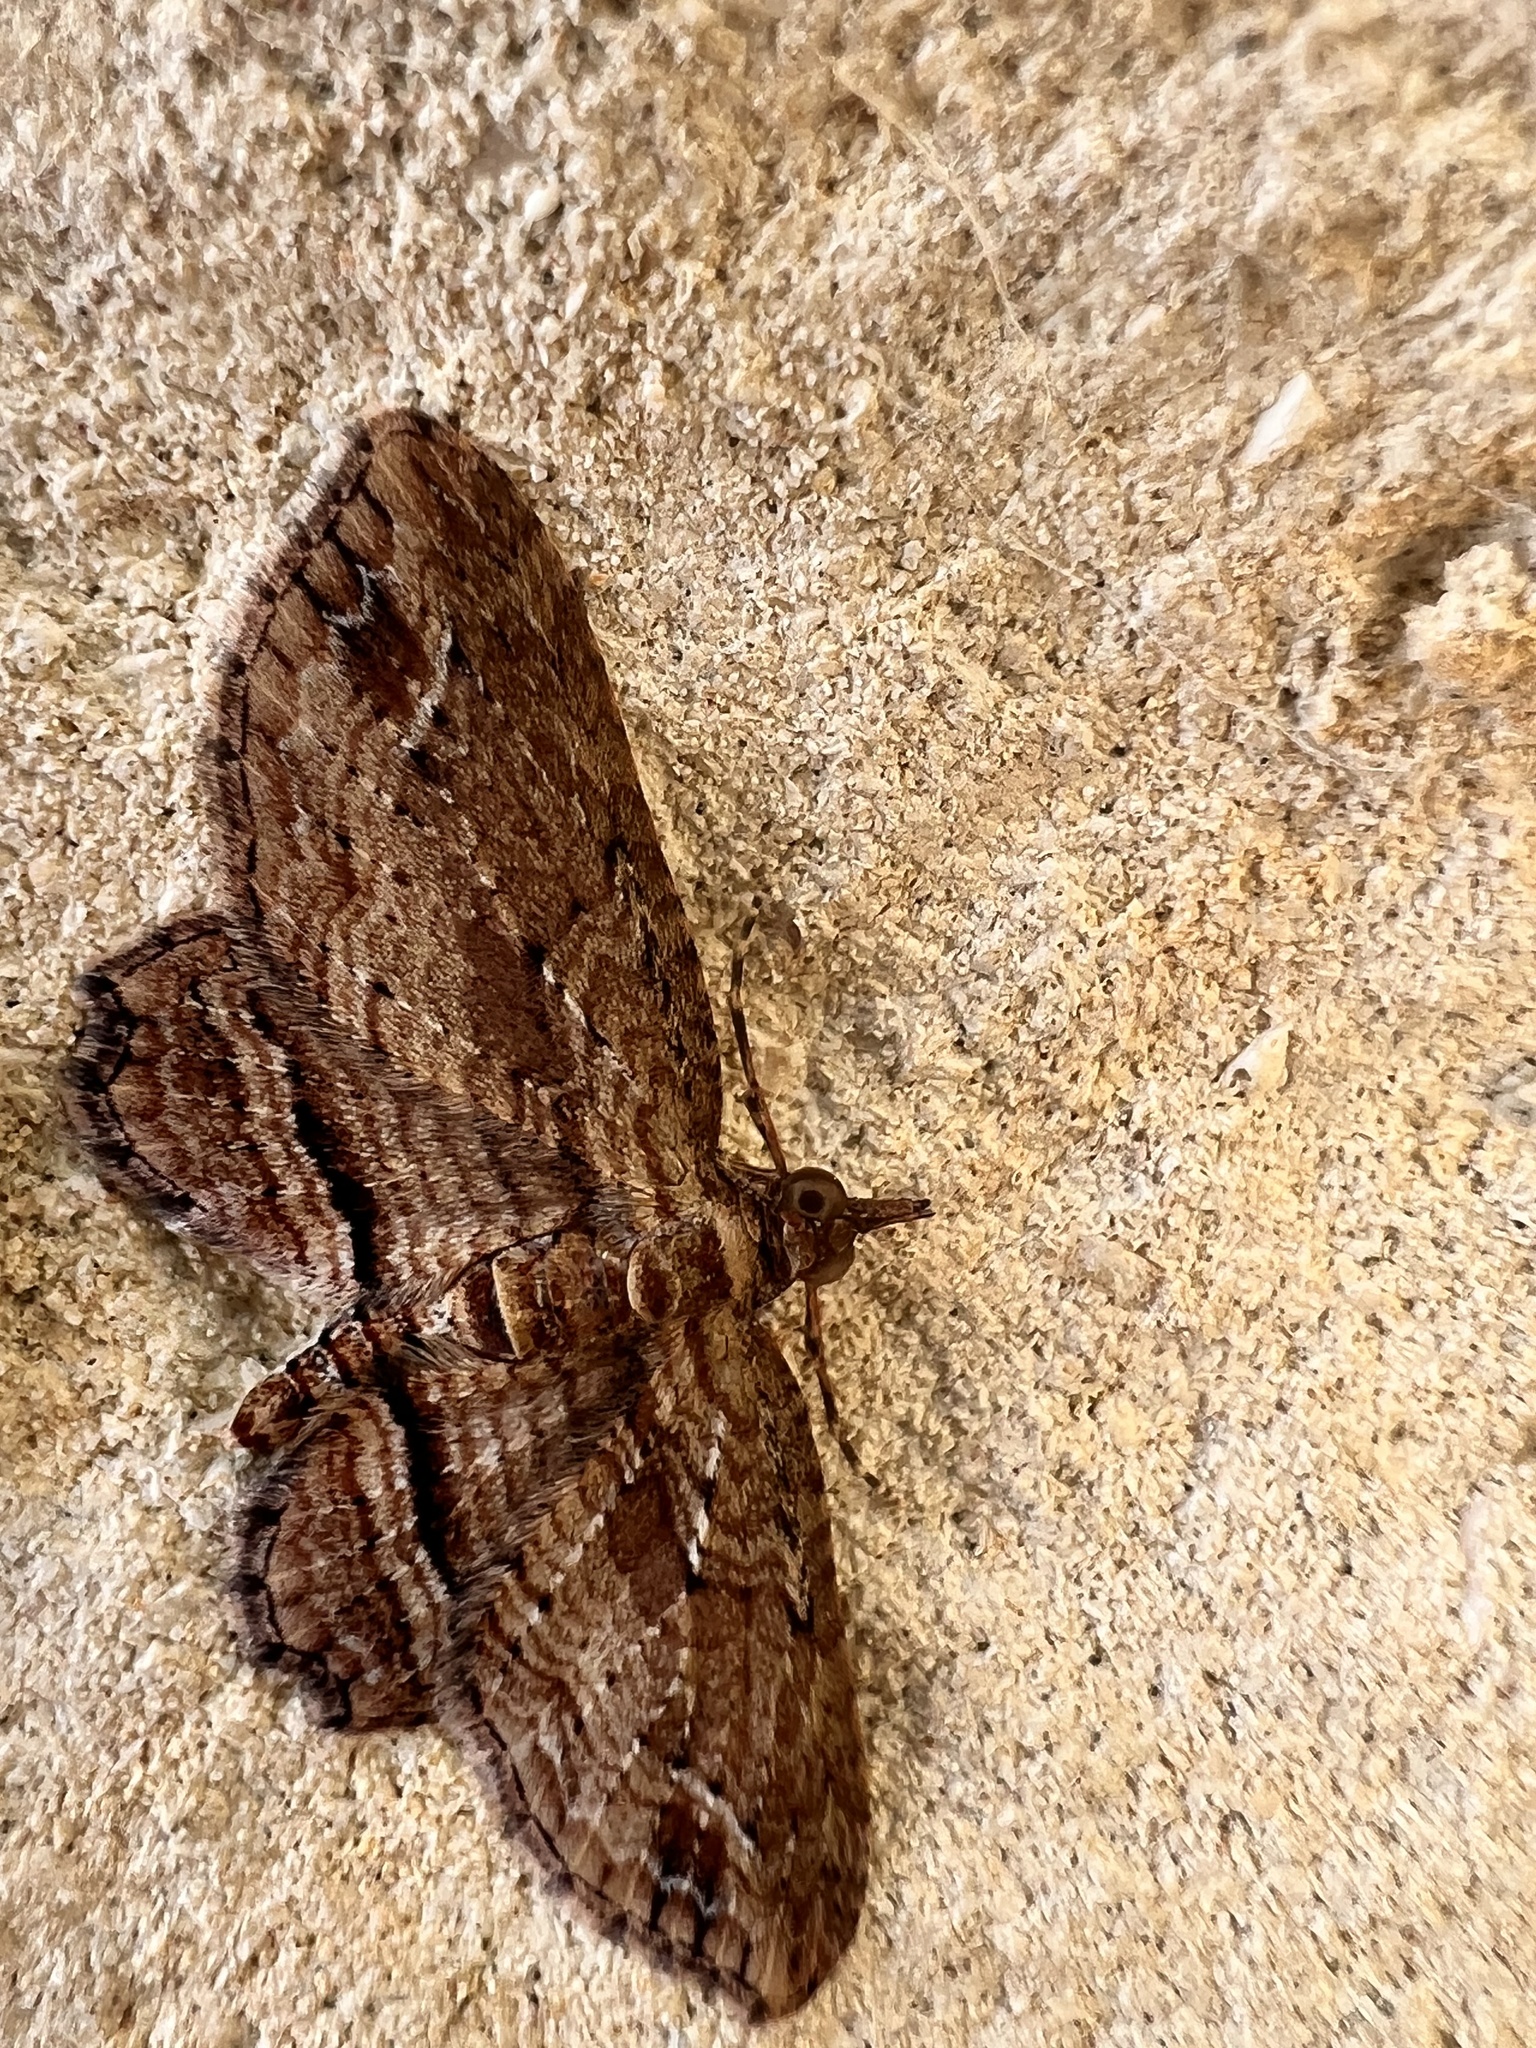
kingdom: Animalia
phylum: Arthropoda
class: Insecta
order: Lepidoptera
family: Geometridae
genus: Chloroclystis
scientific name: Chloroclystis filata
